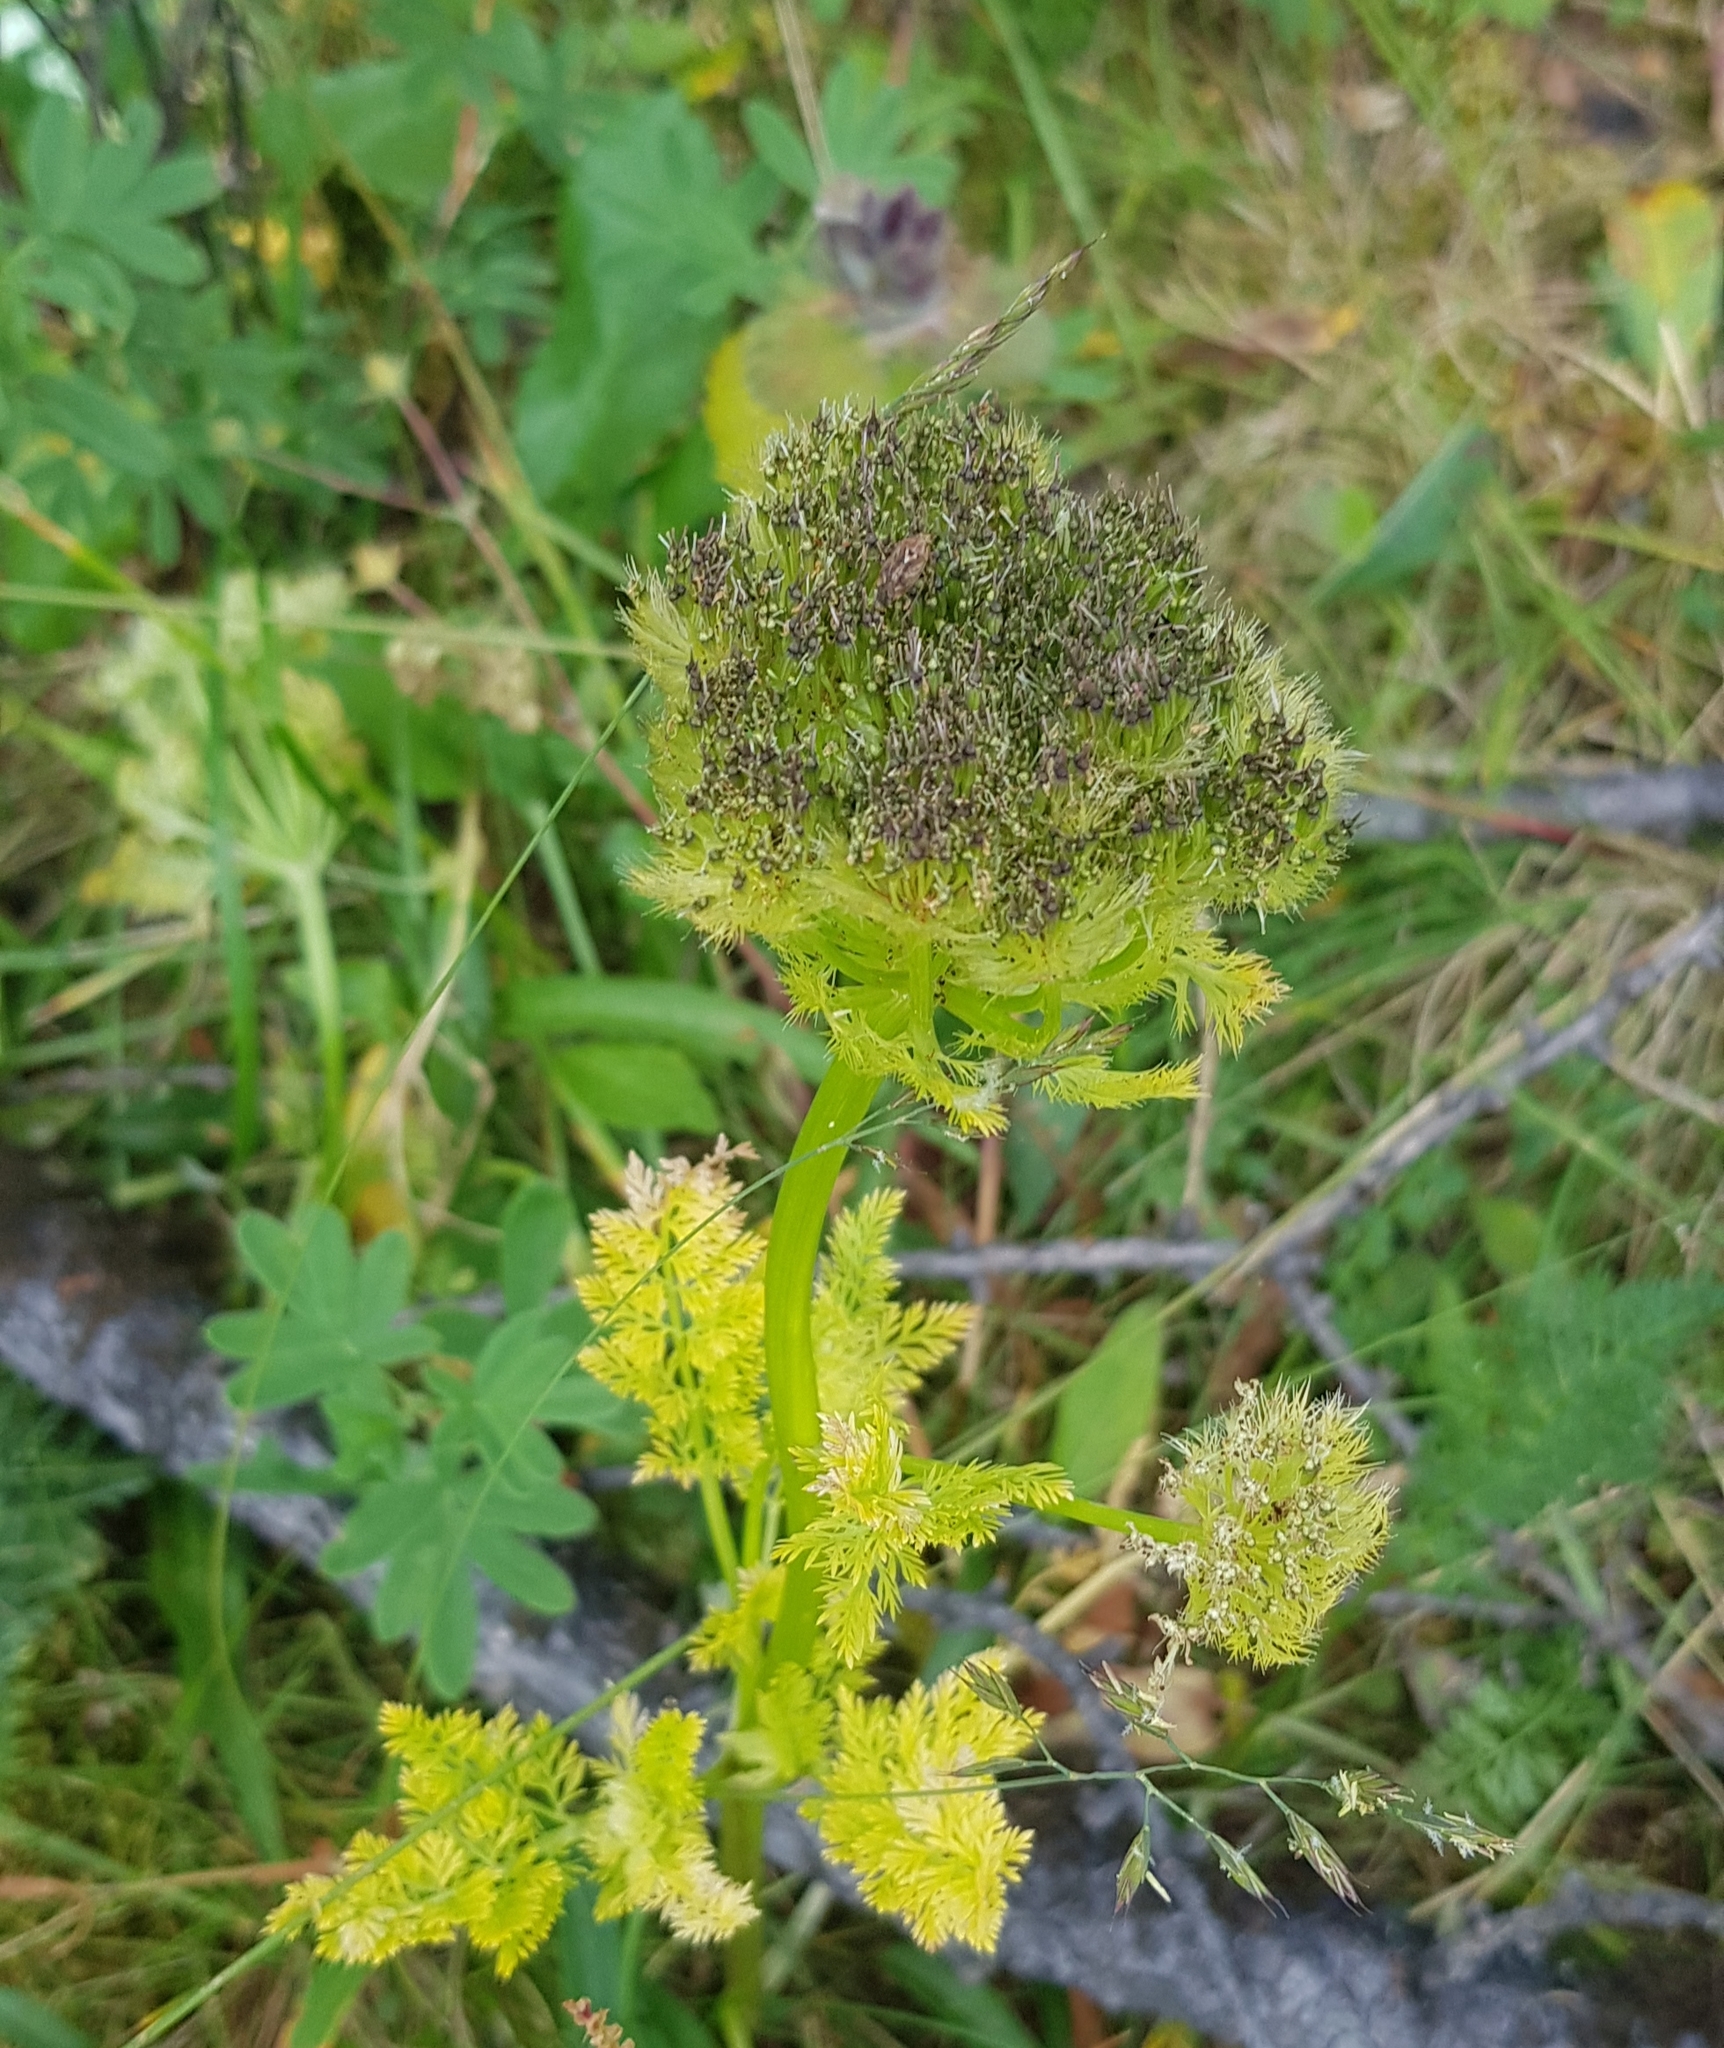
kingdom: Plantae
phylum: Tracheophyta
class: Magnoliopsida
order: Apiales
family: Apiaceae
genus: Schulzia
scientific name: Schulzia crinita
